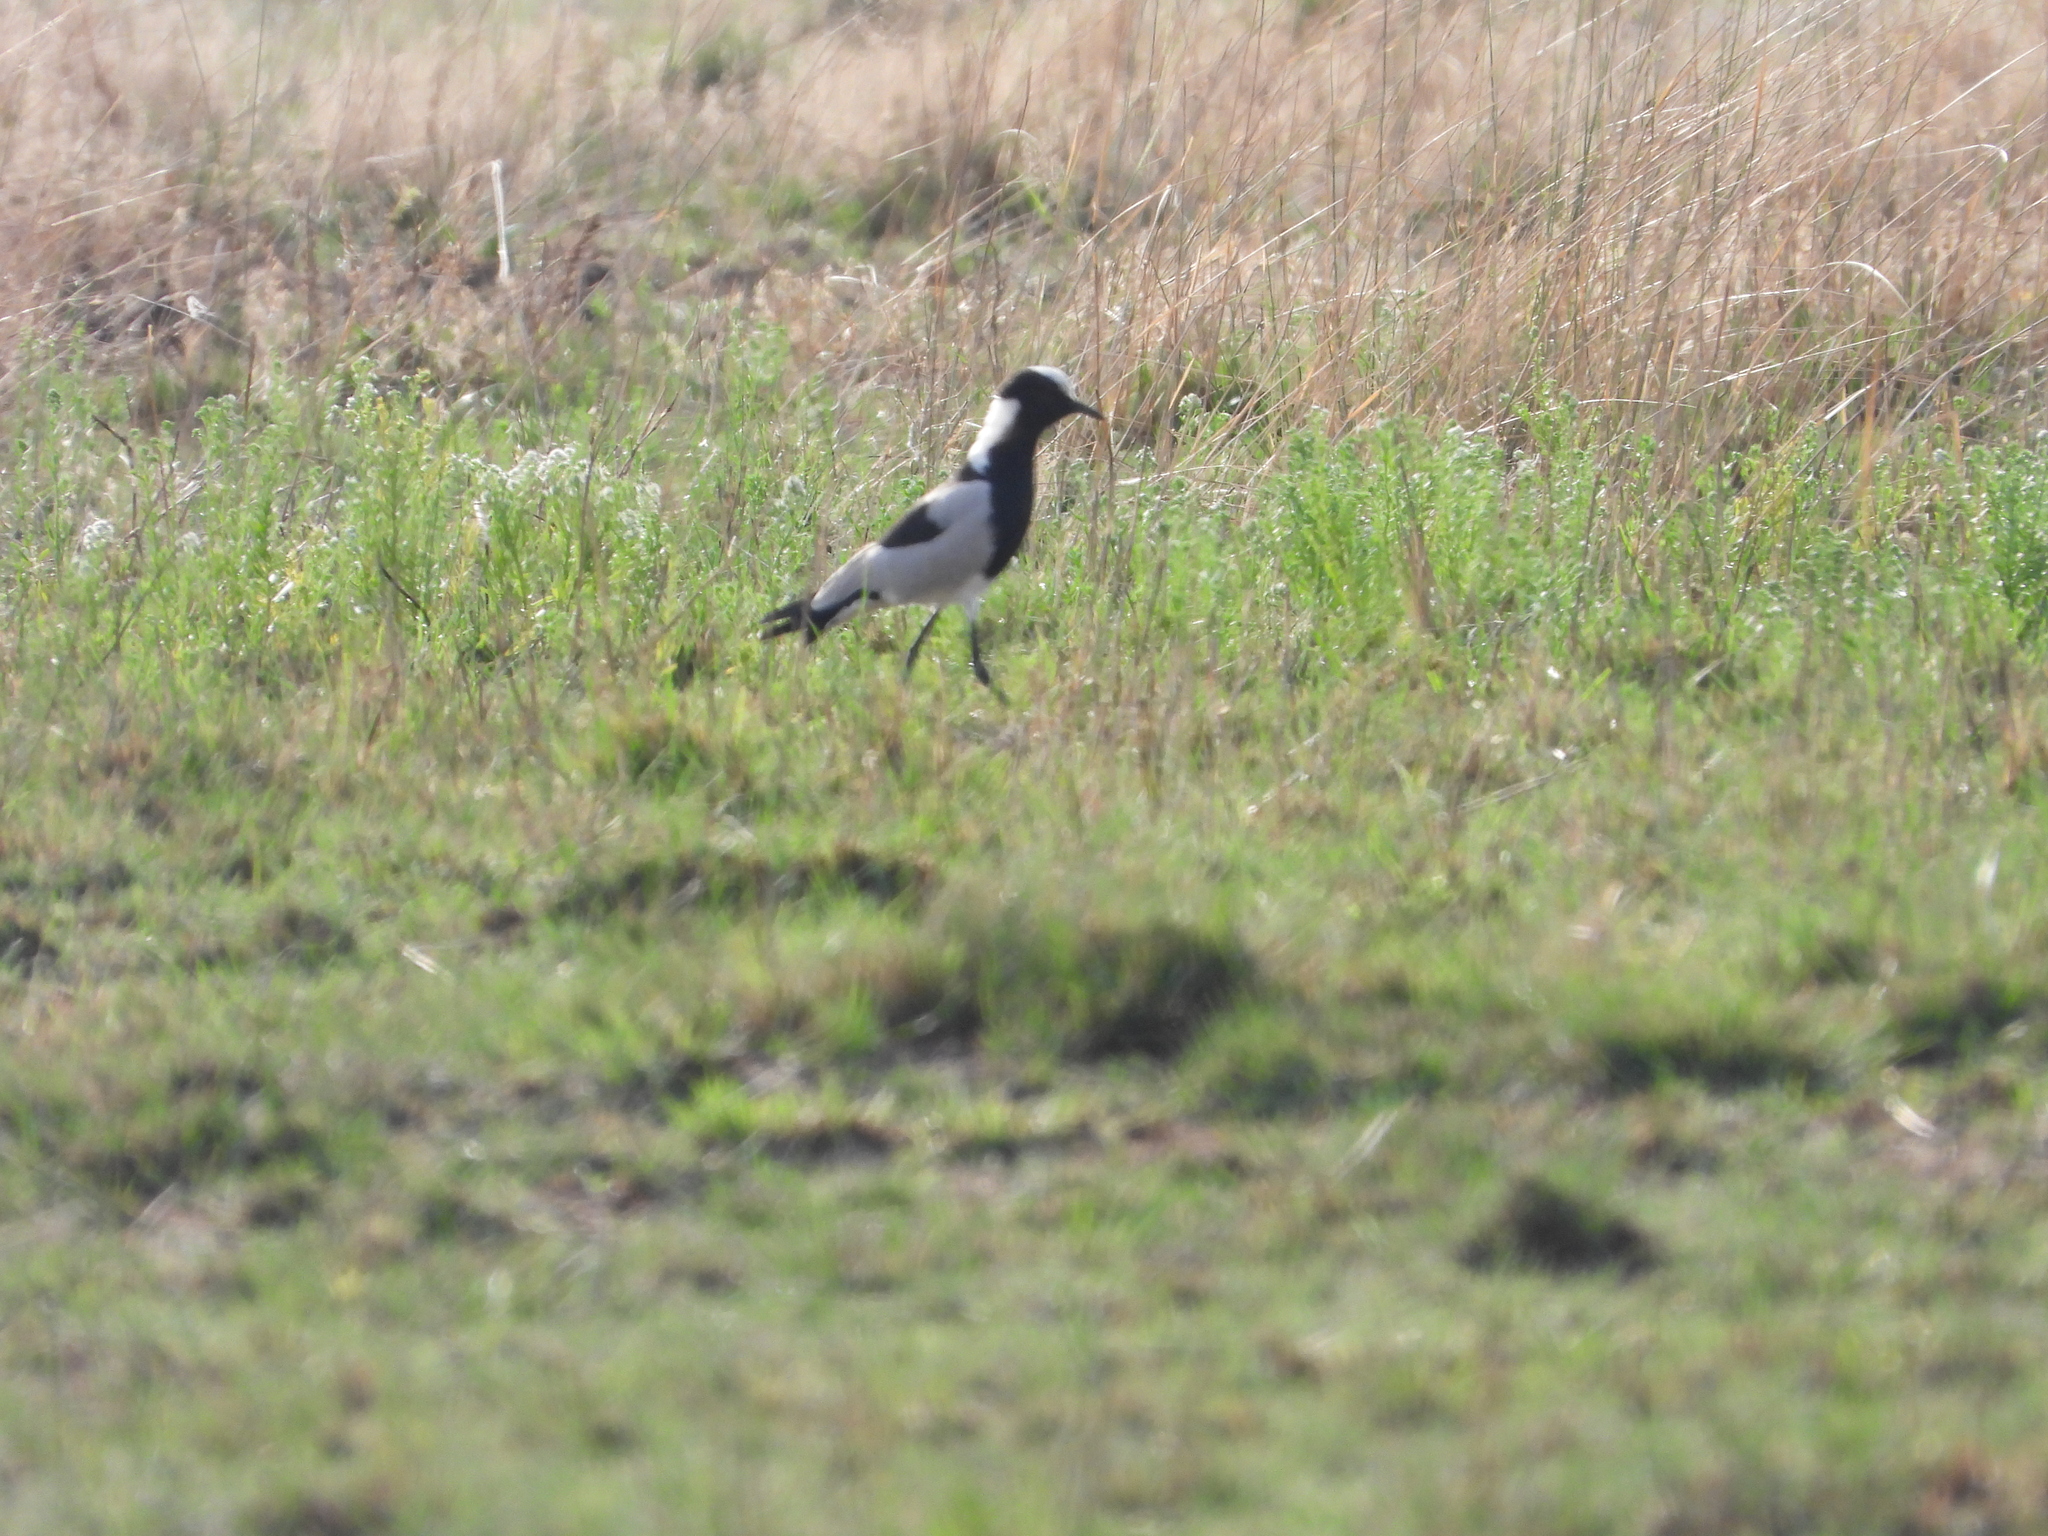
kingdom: Animalia
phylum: Chordata
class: Aves
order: Charadriiformes
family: Charadriidae
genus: Vanellus
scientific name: Vanellus armatus
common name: Blacksmith lapwing
